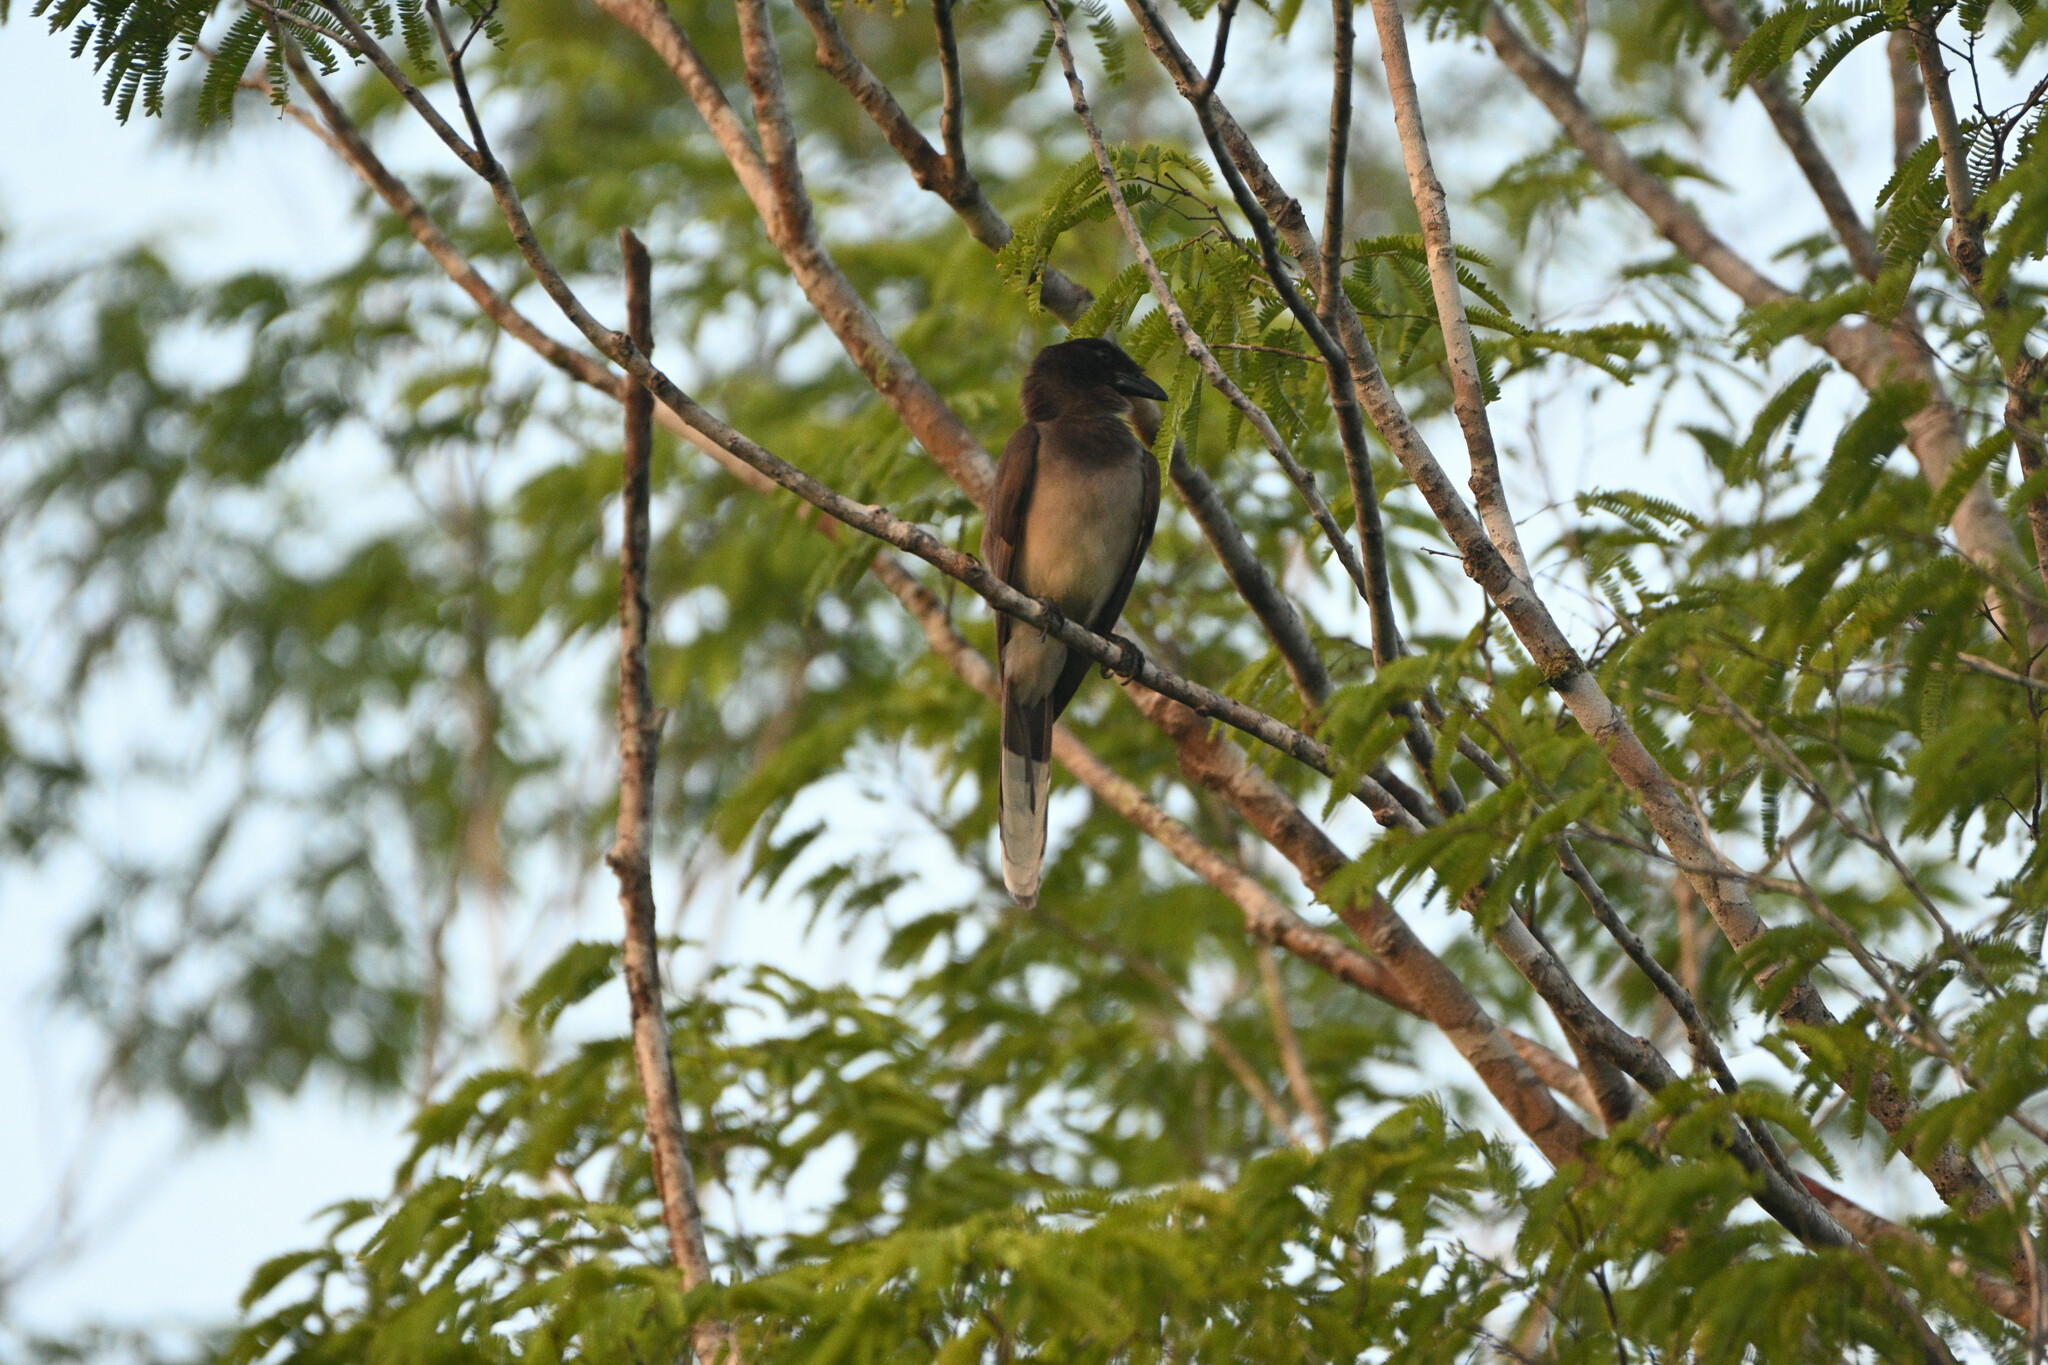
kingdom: Animalia
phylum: Chordata
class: Aves
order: Passeriformes
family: Corvidae
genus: Psilorhinus
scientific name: Psilorhinus morio
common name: Brown jay
